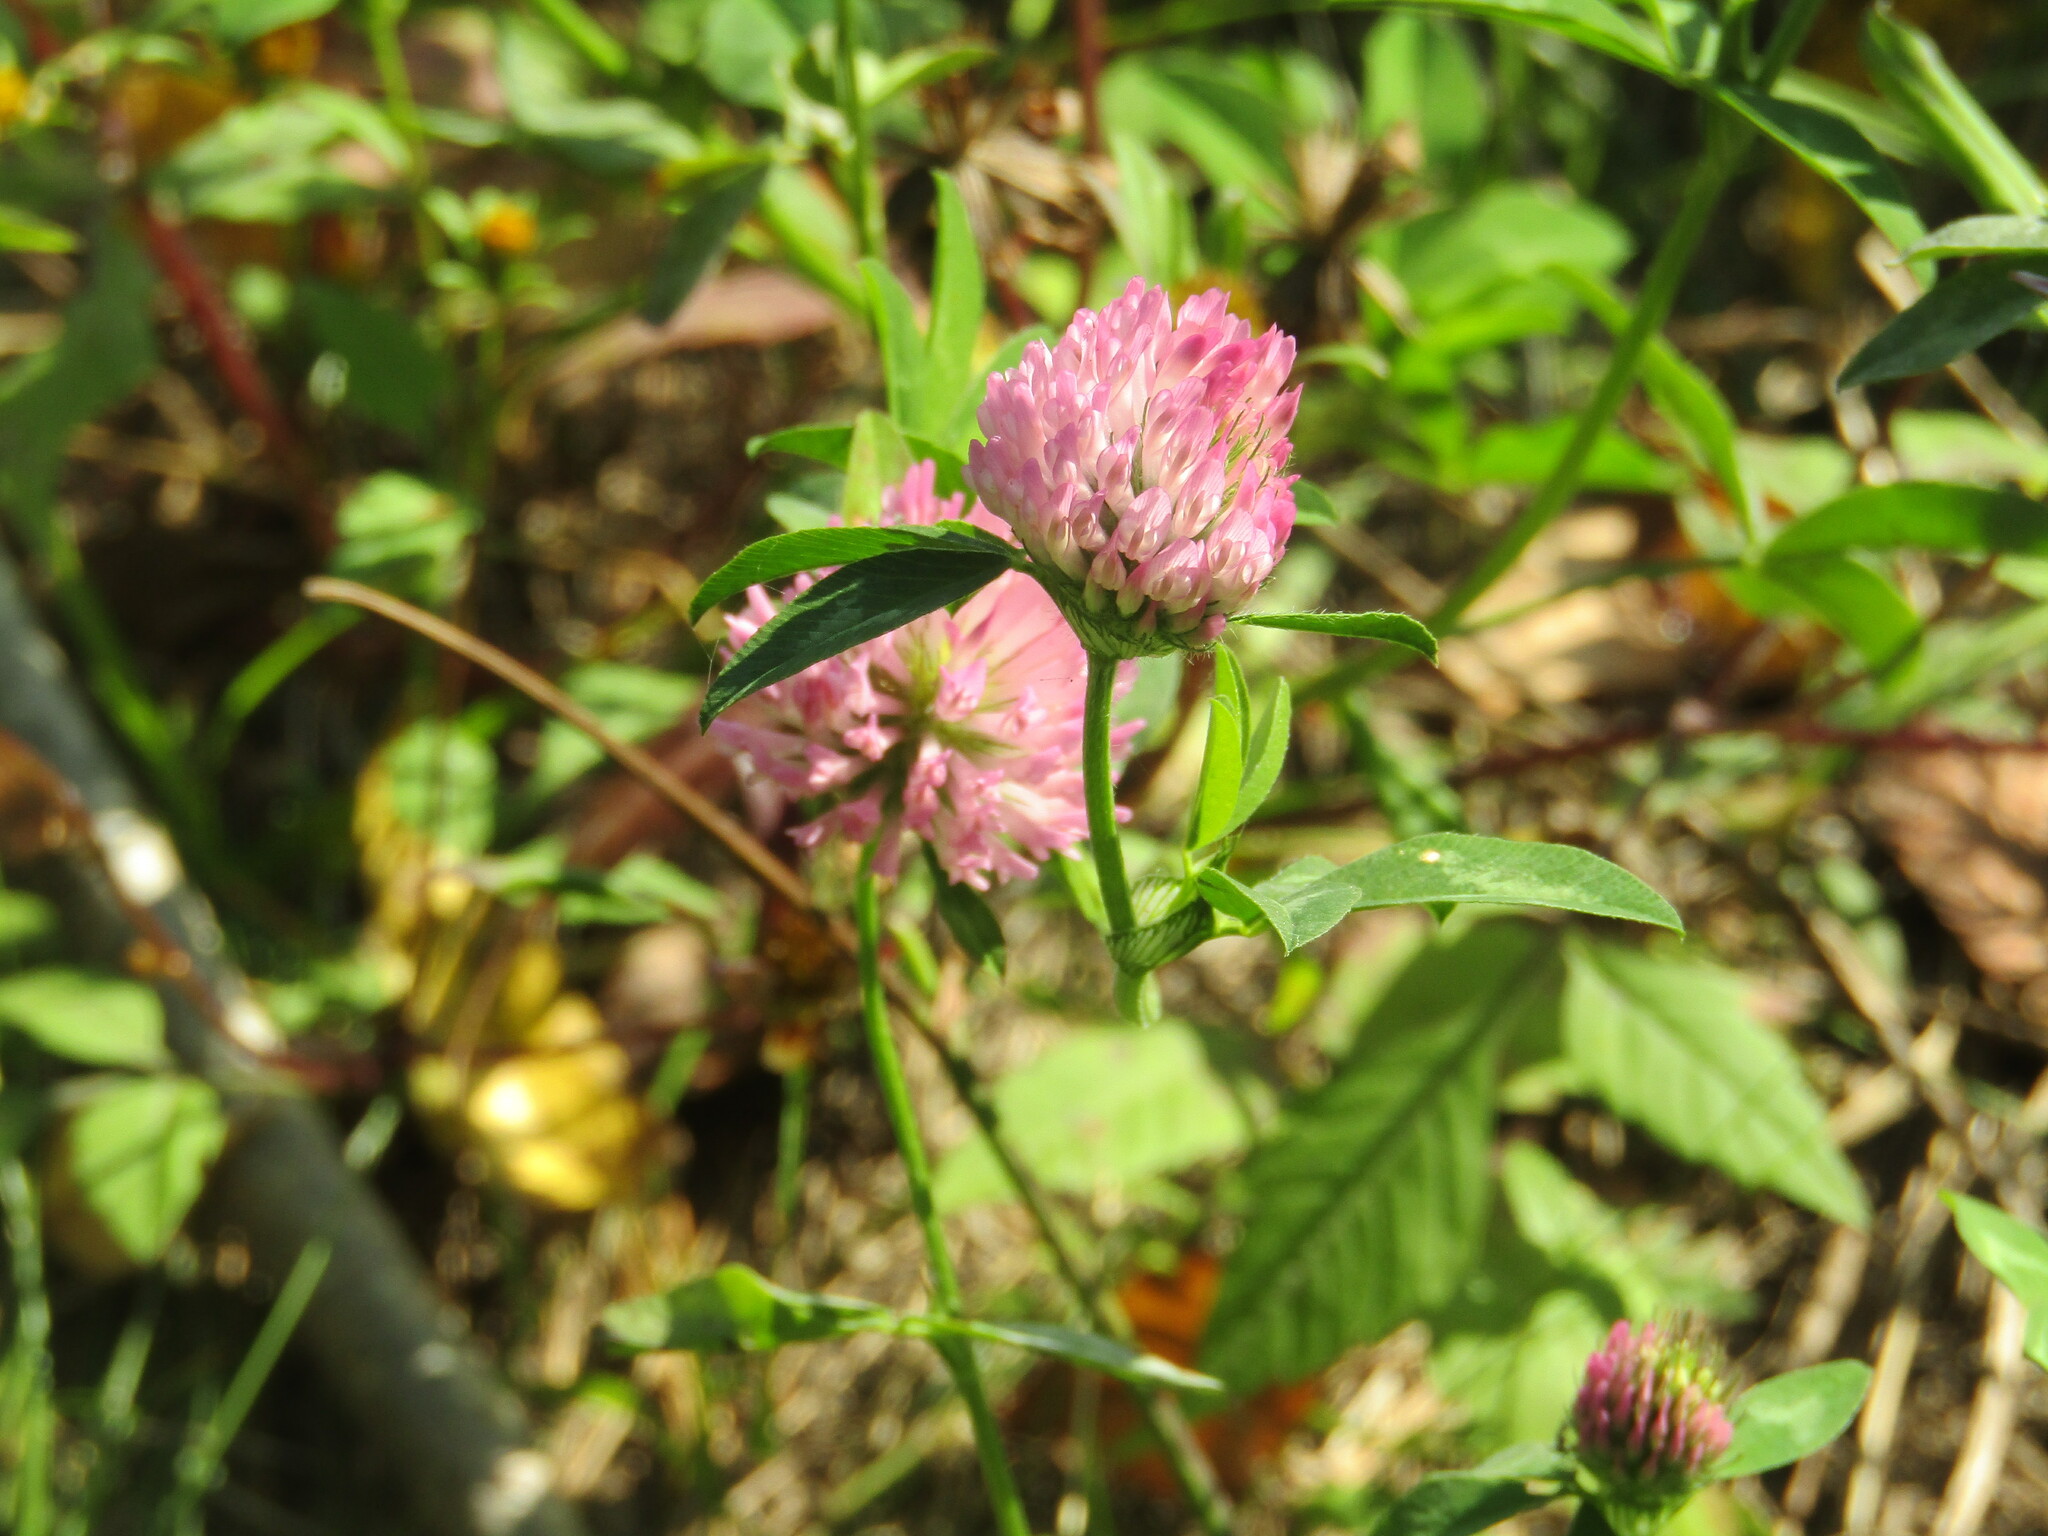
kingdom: Plantae
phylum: Tracheophyta
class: Magnoliopsida
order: Fabales
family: Fabaceae
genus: Trifolium
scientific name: Trifolium pratense
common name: Red clover
